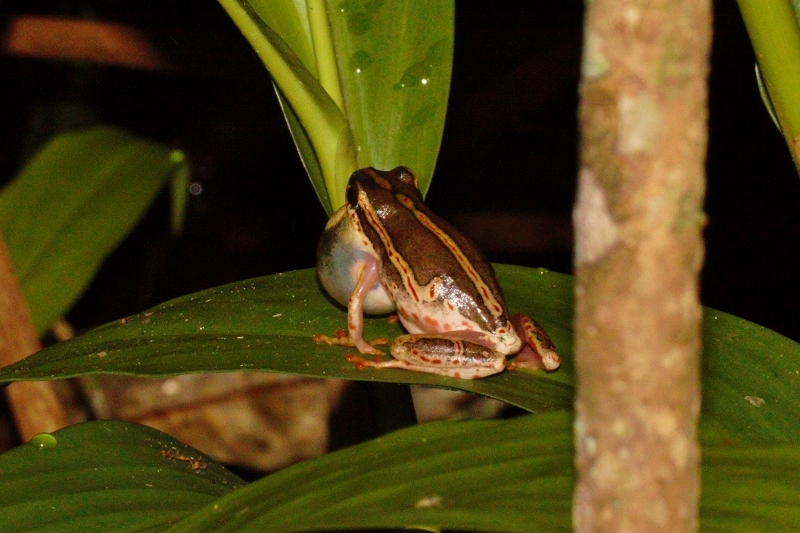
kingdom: Animalia
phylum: Chordata
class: Amphibia
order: Anura
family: Hyperoliidae
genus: Hyperolius
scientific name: Hyperolius marmoratus
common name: Painted reed frog
